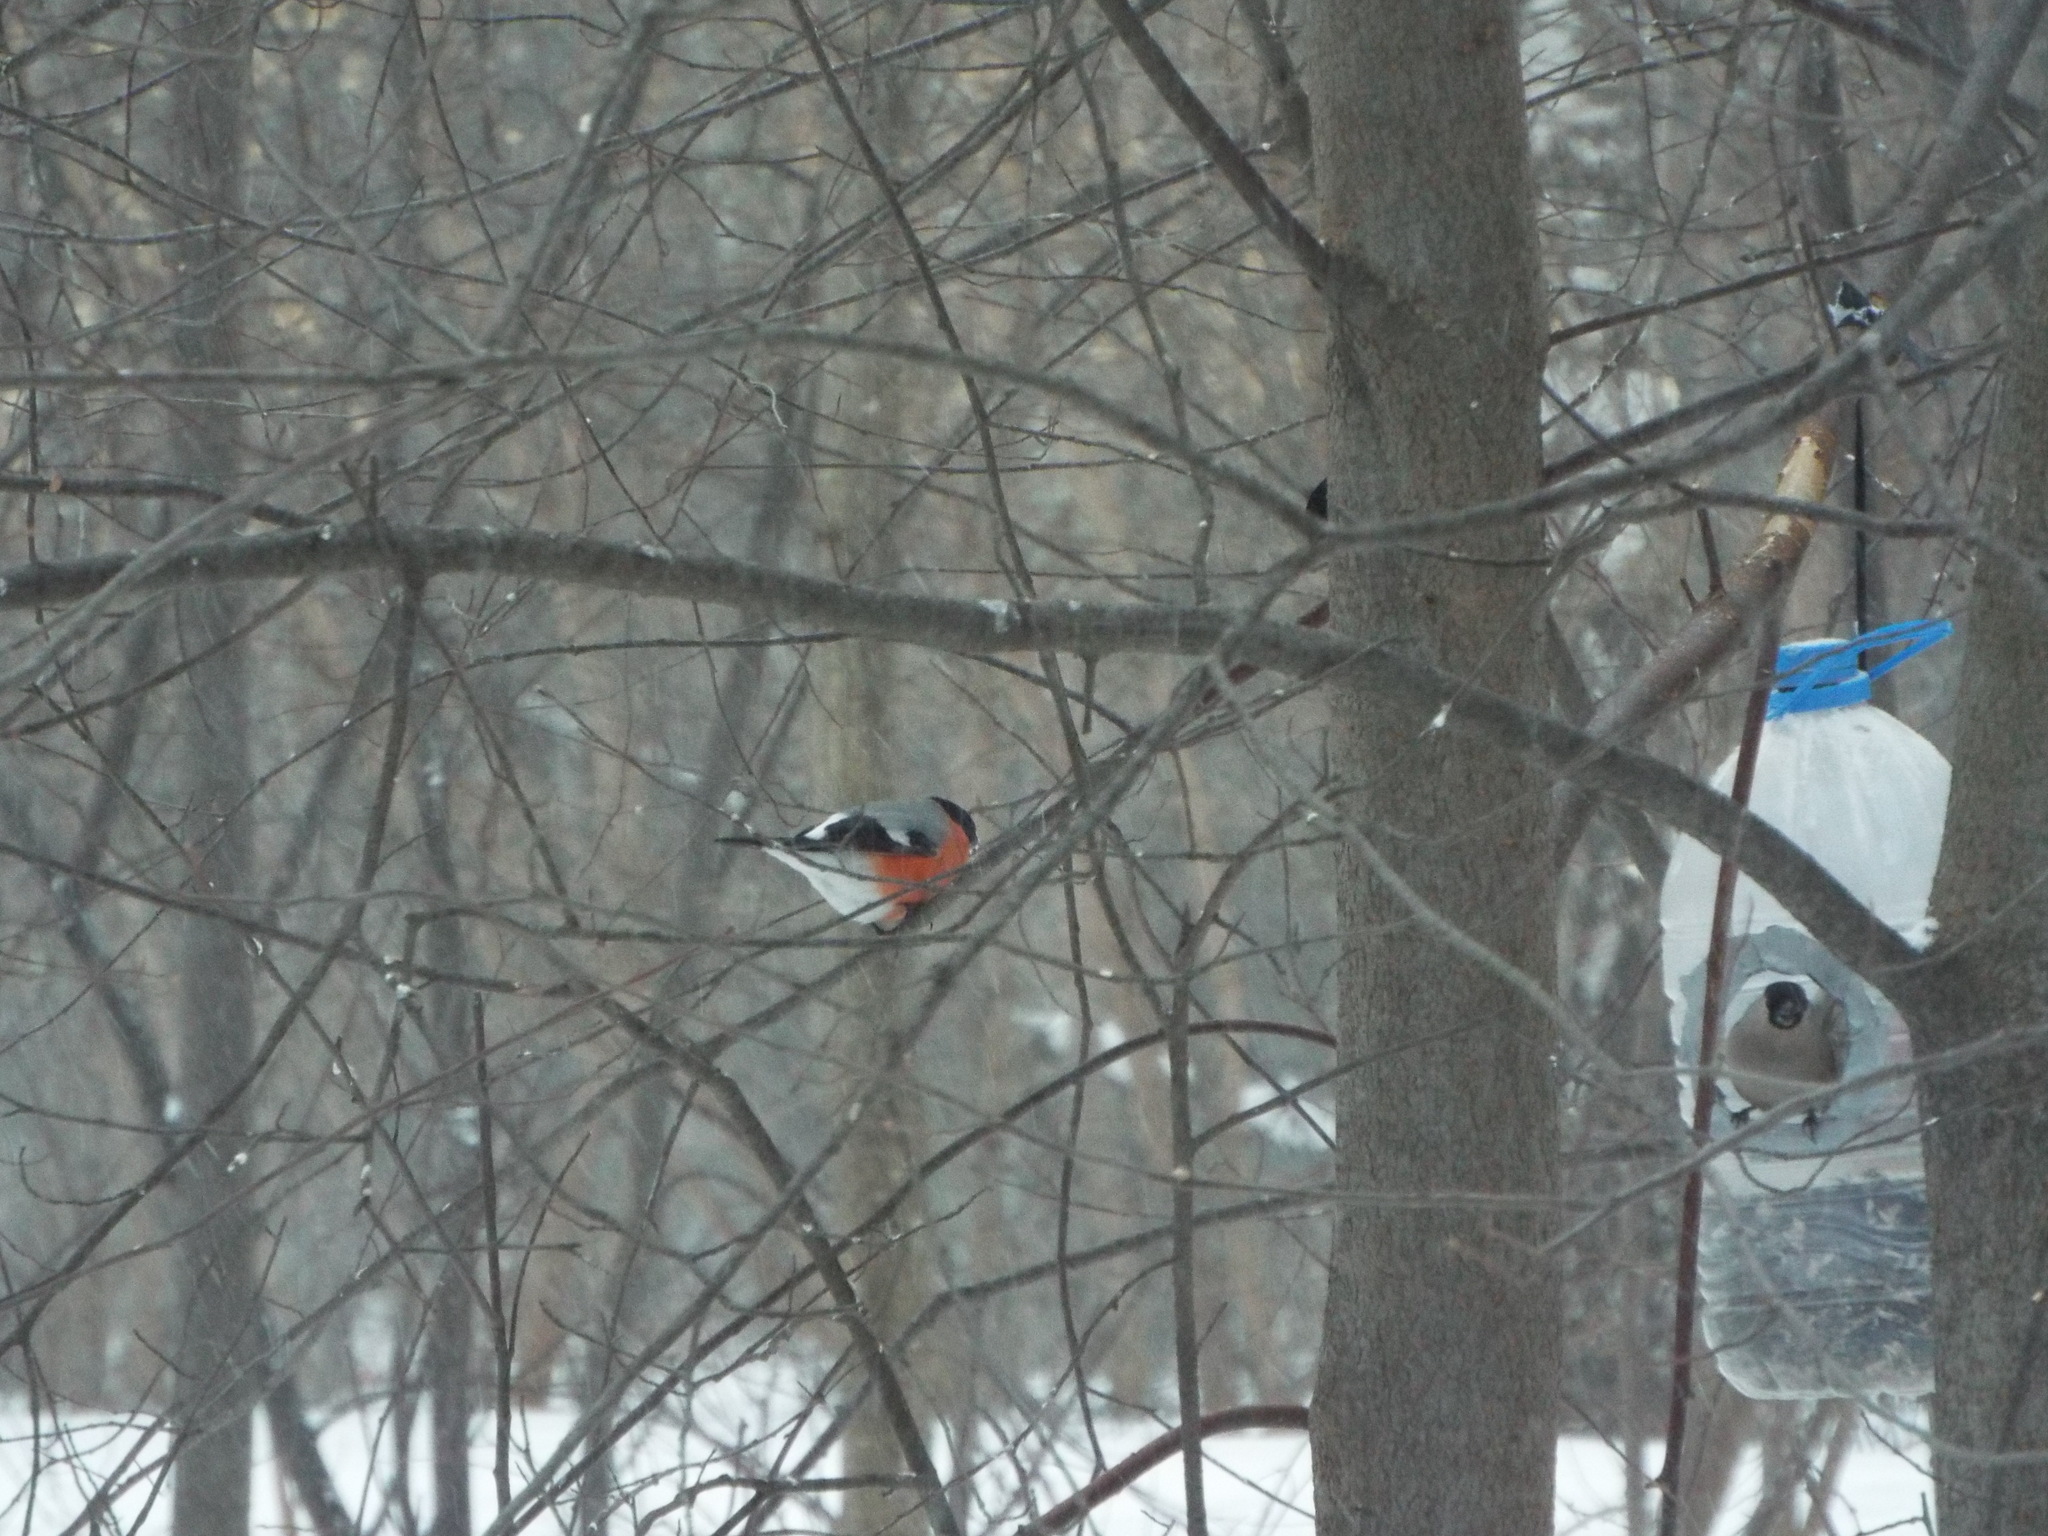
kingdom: Animalia
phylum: Chordata
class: Aves
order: Passeriformes
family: Fringillidae
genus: Pyrrhula
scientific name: Pyrrhula pyrrhula
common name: Eurasian bullfinch
